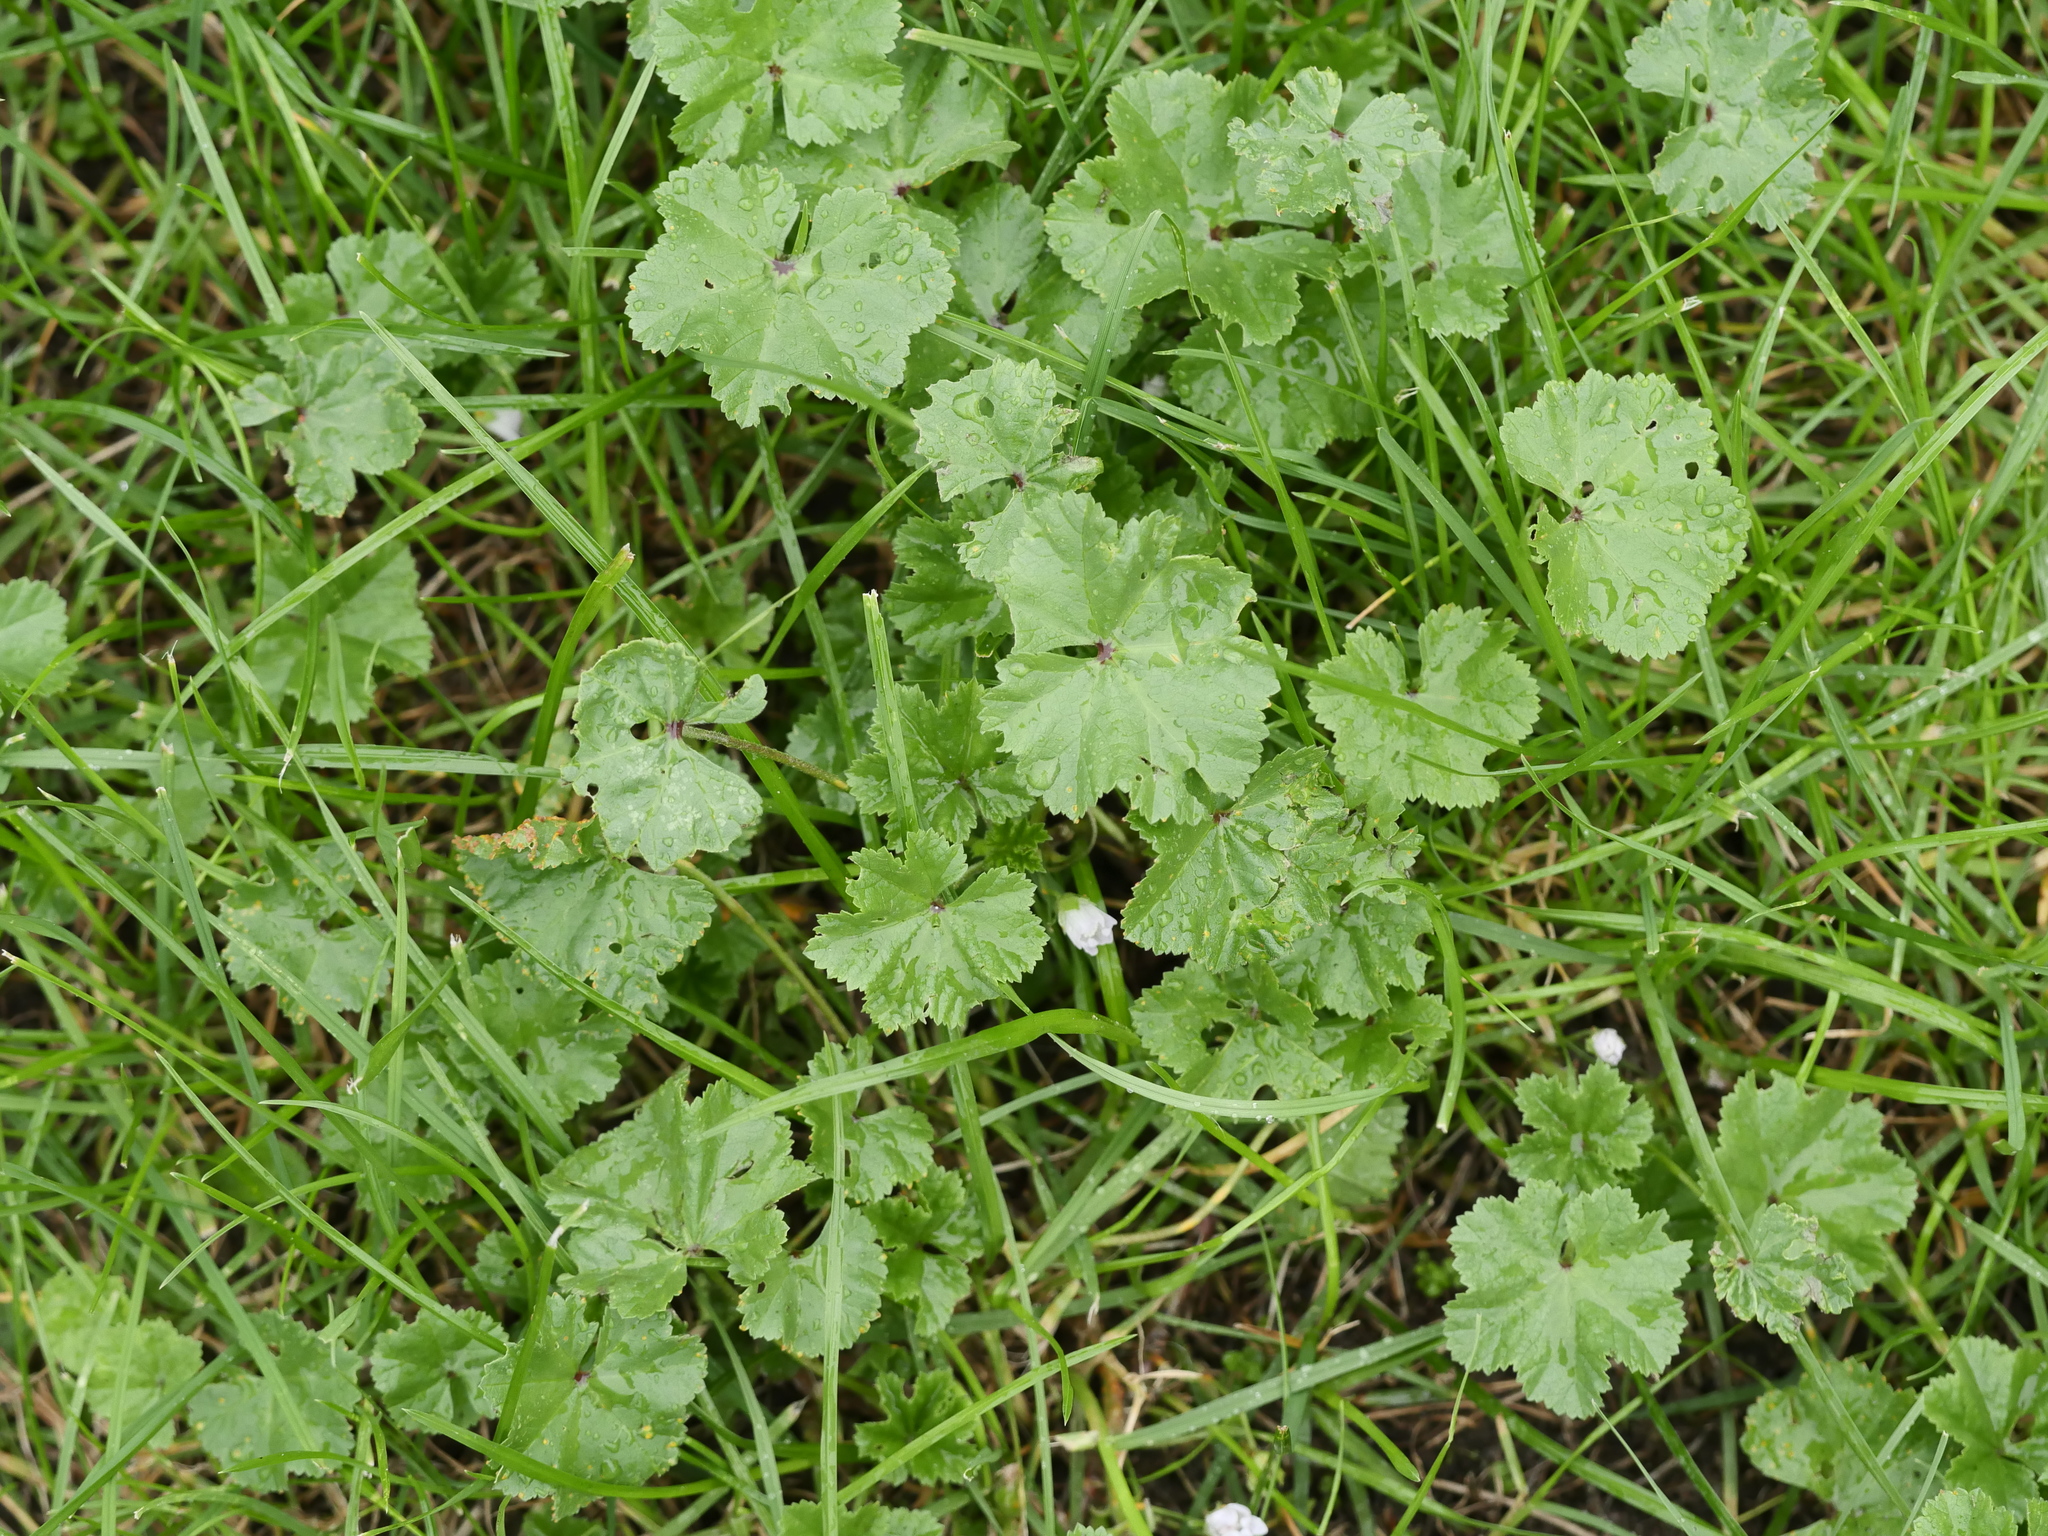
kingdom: Plantae
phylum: Tracheophyta
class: Magnoliopsida
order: Malvales
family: Malvaceae
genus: Malva
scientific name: Malva neglecta
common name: Common mallow
